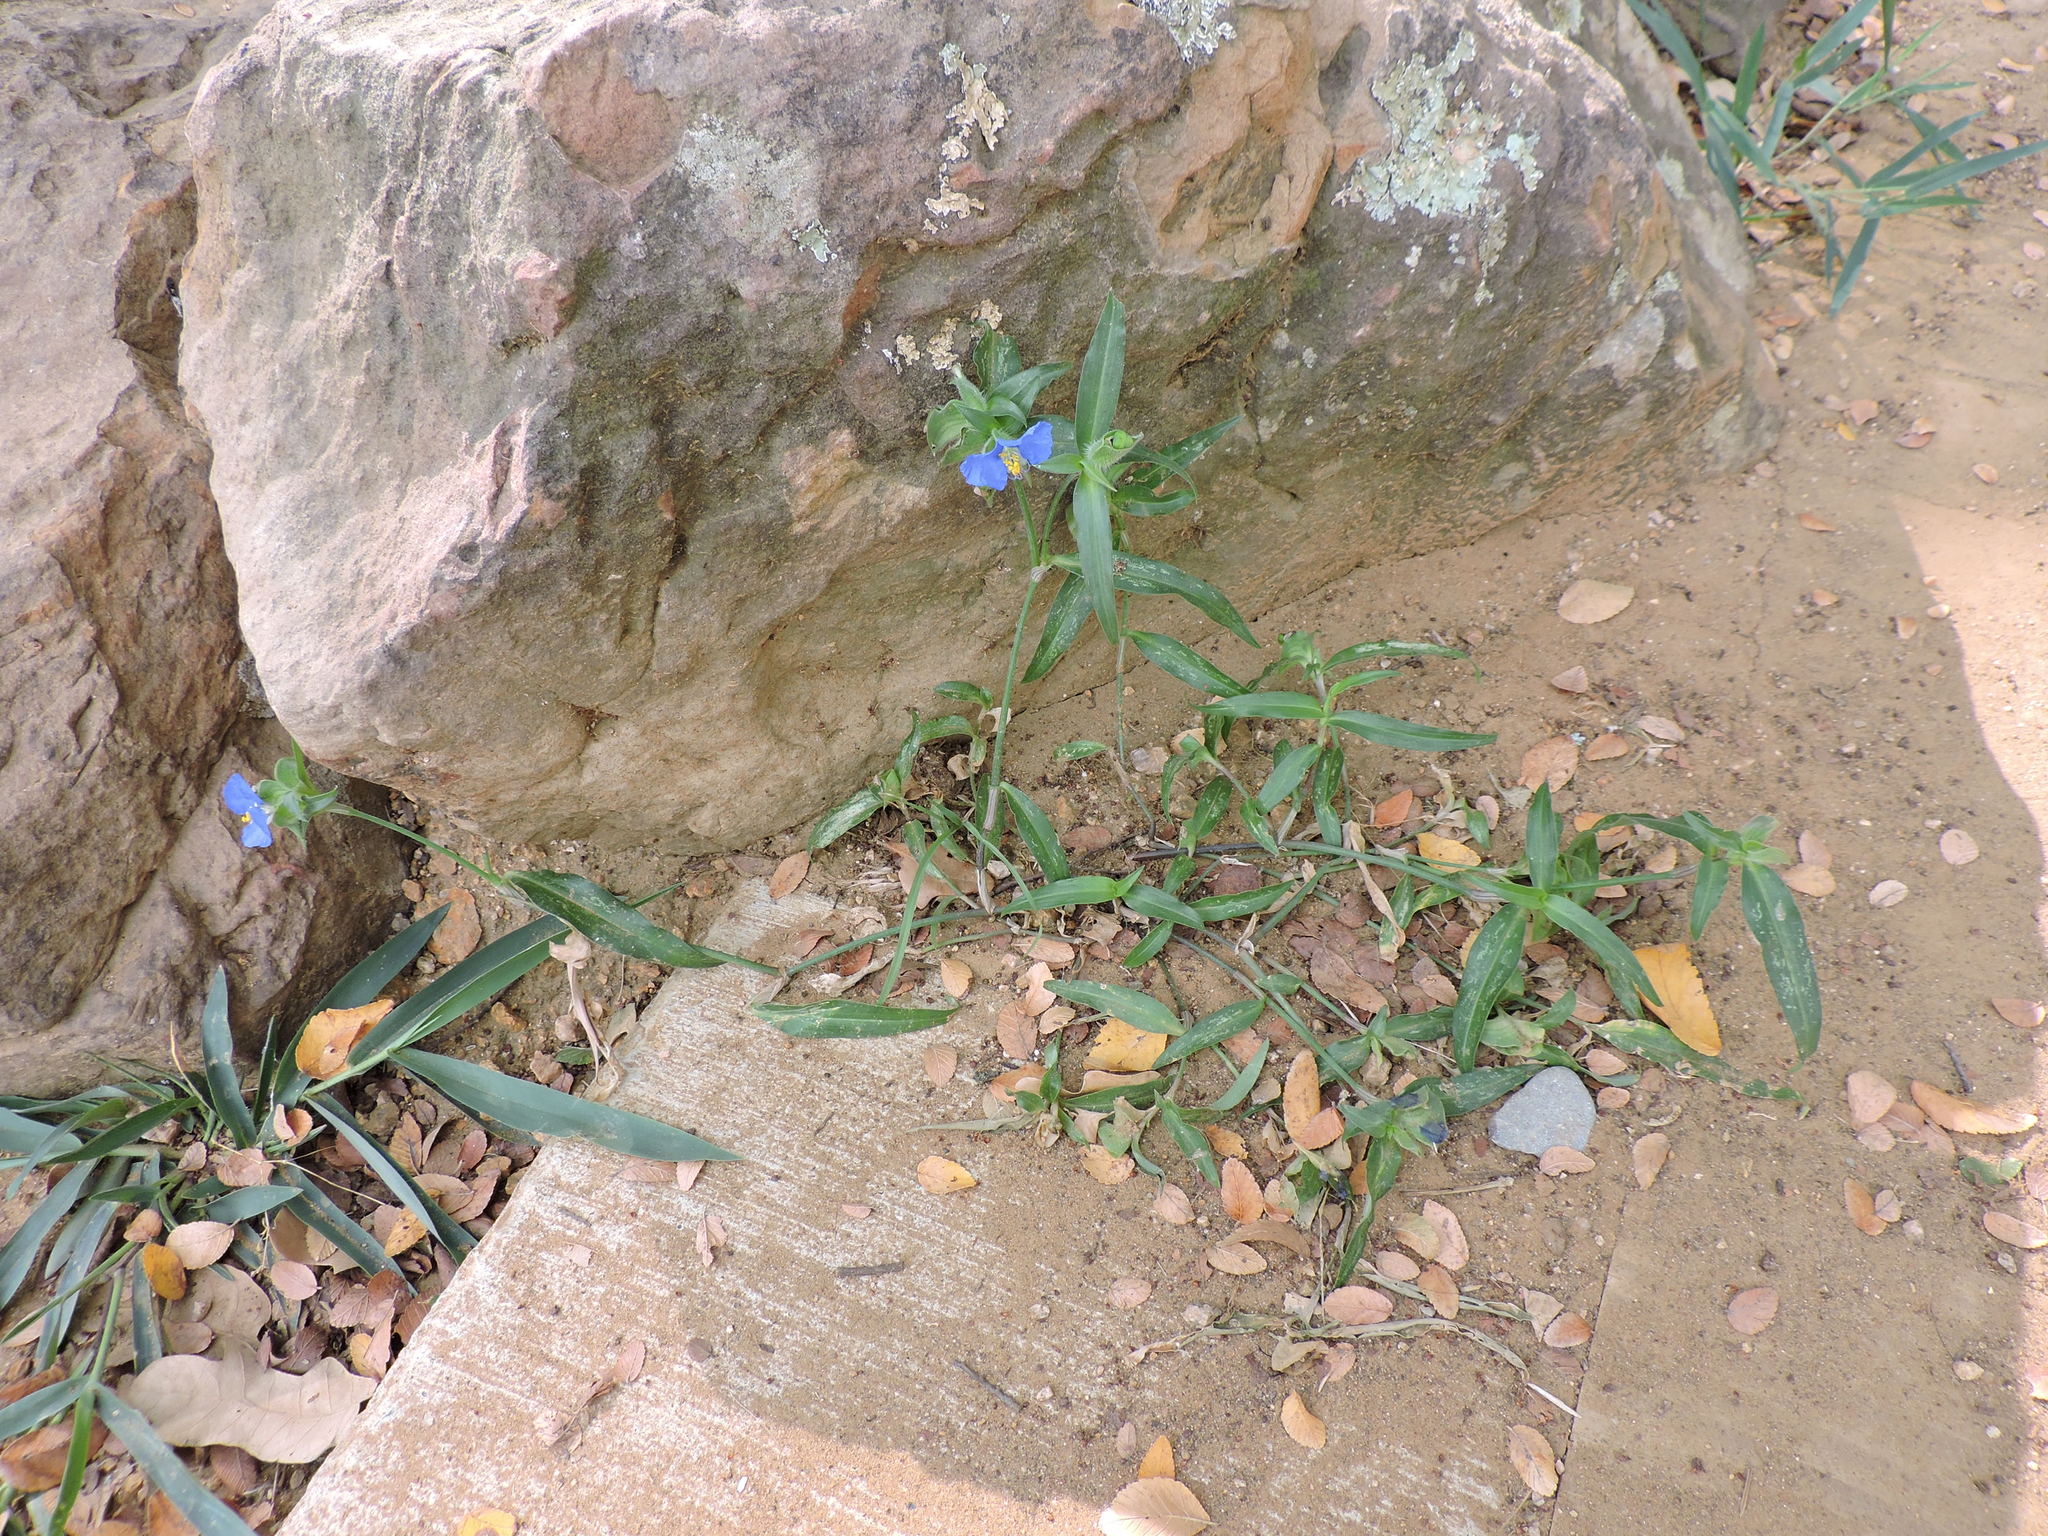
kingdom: Plantae
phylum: Tracheophyta
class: Liliopsida
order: Commelinales
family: Commelinaceae
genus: Commelina
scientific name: Commelina erecta
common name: Blousel blommetjie
